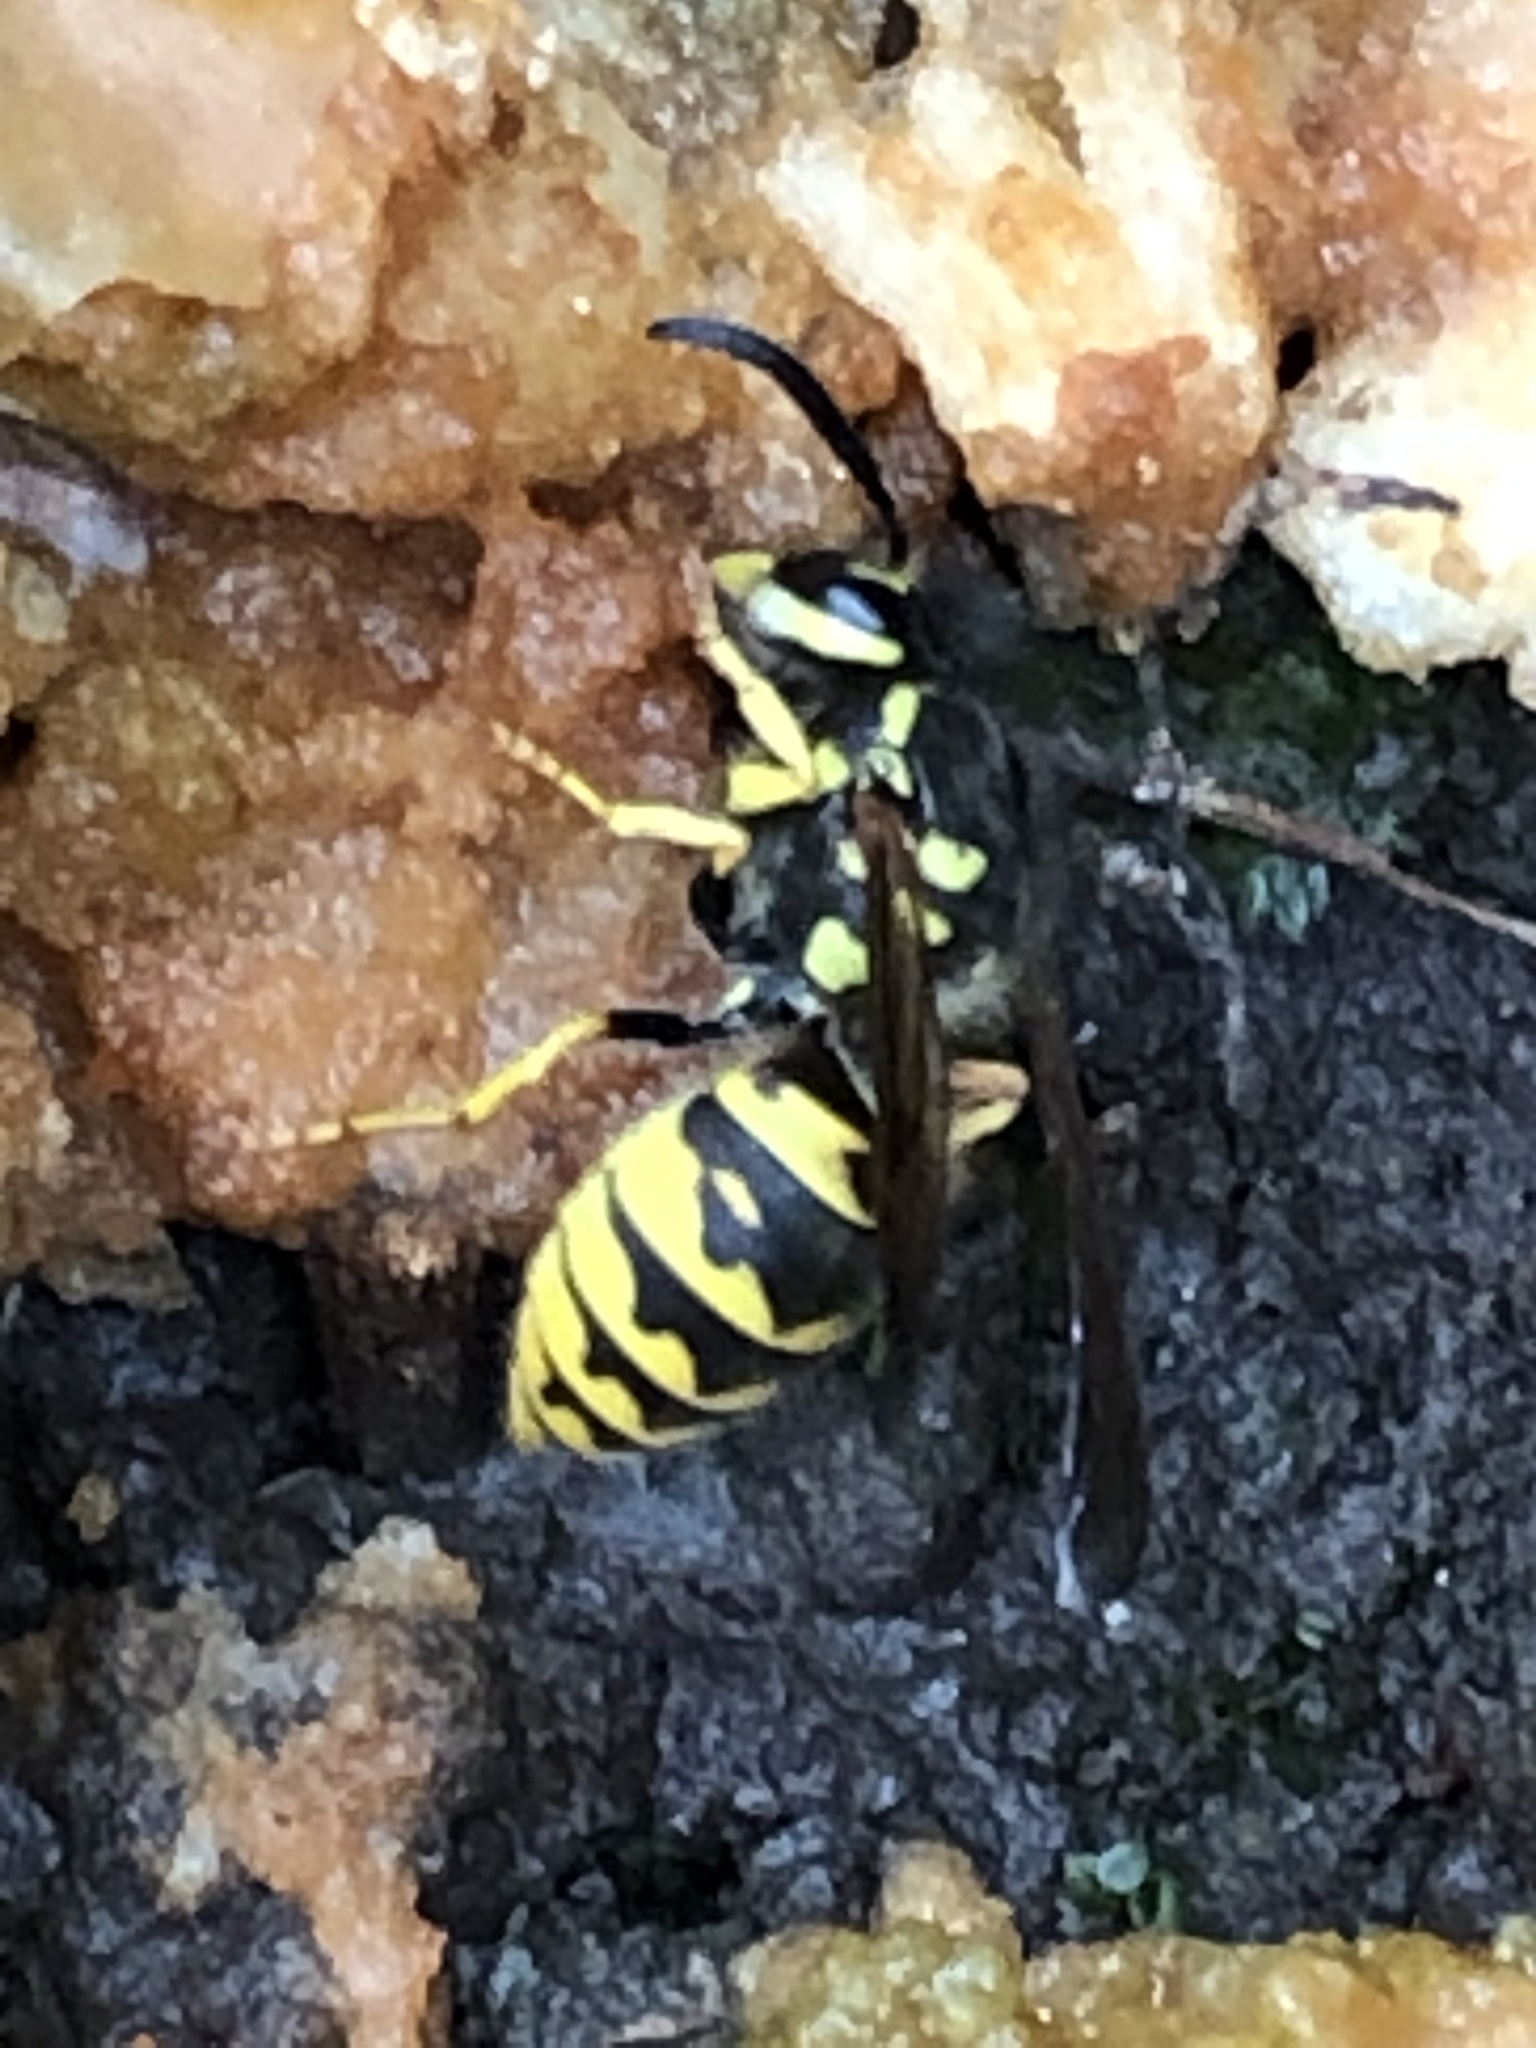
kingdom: Animalia
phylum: Arthropoda
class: Insecta
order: Hymenoptera
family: Vespidae
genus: Vespula
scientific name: Vespula germanica
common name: German wasp
